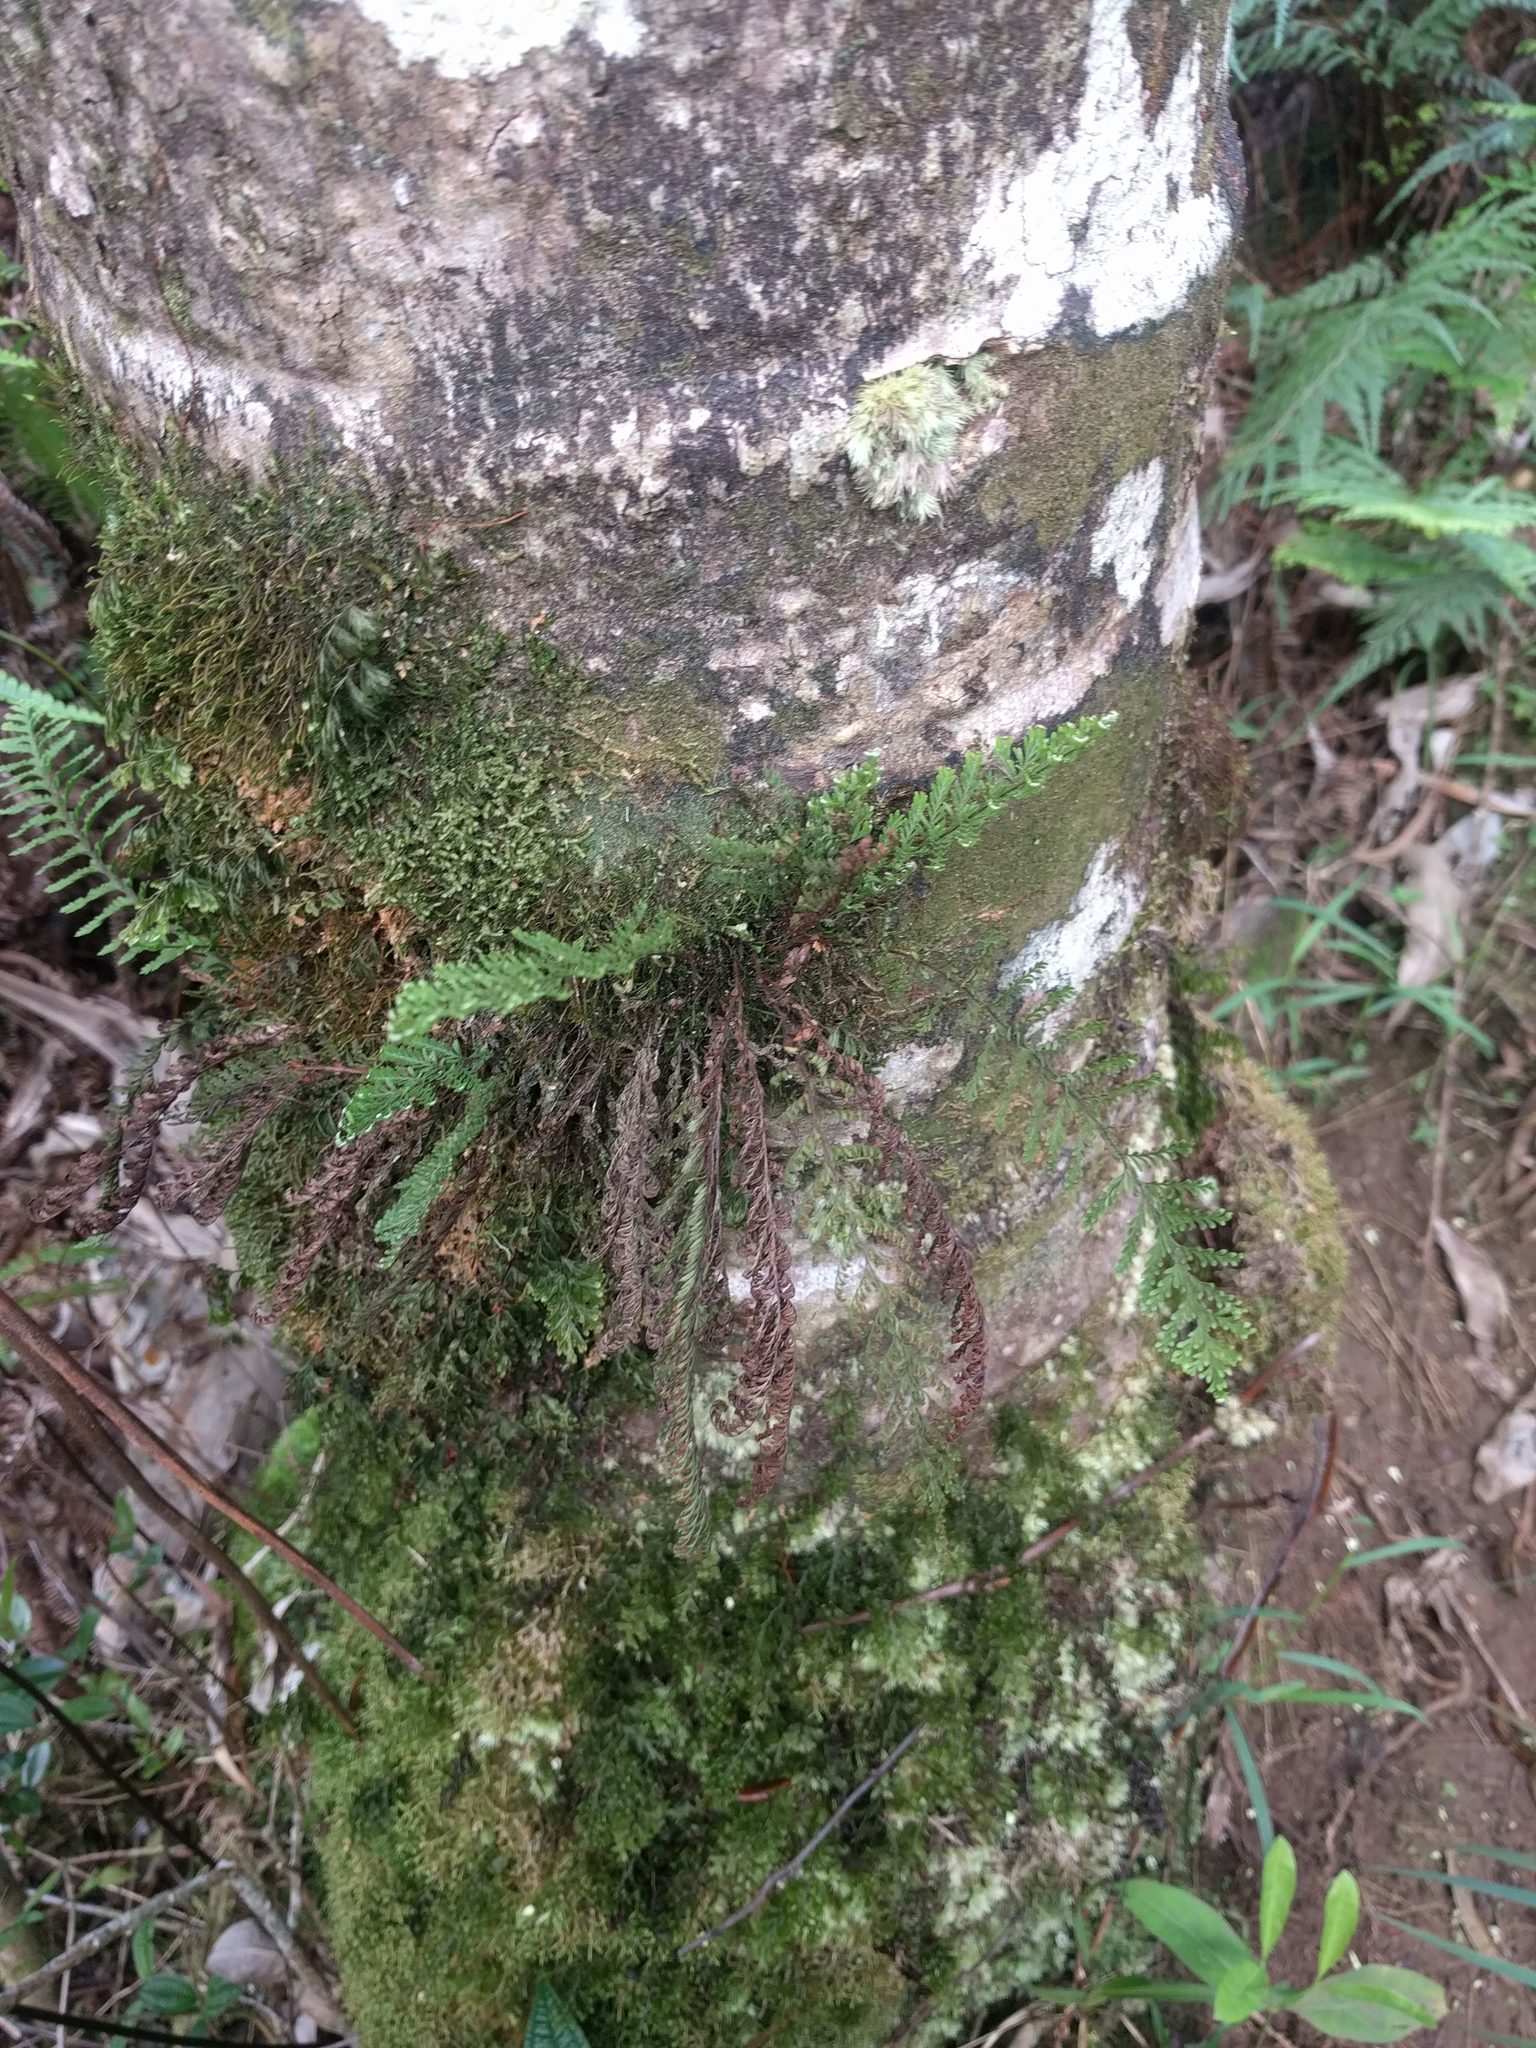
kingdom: Plantae
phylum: Tracheophyta
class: Polypodiopsida
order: Polypodiales
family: Polypodiaceae
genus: Adenophorus
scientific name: Adenophorus tamariscinus
